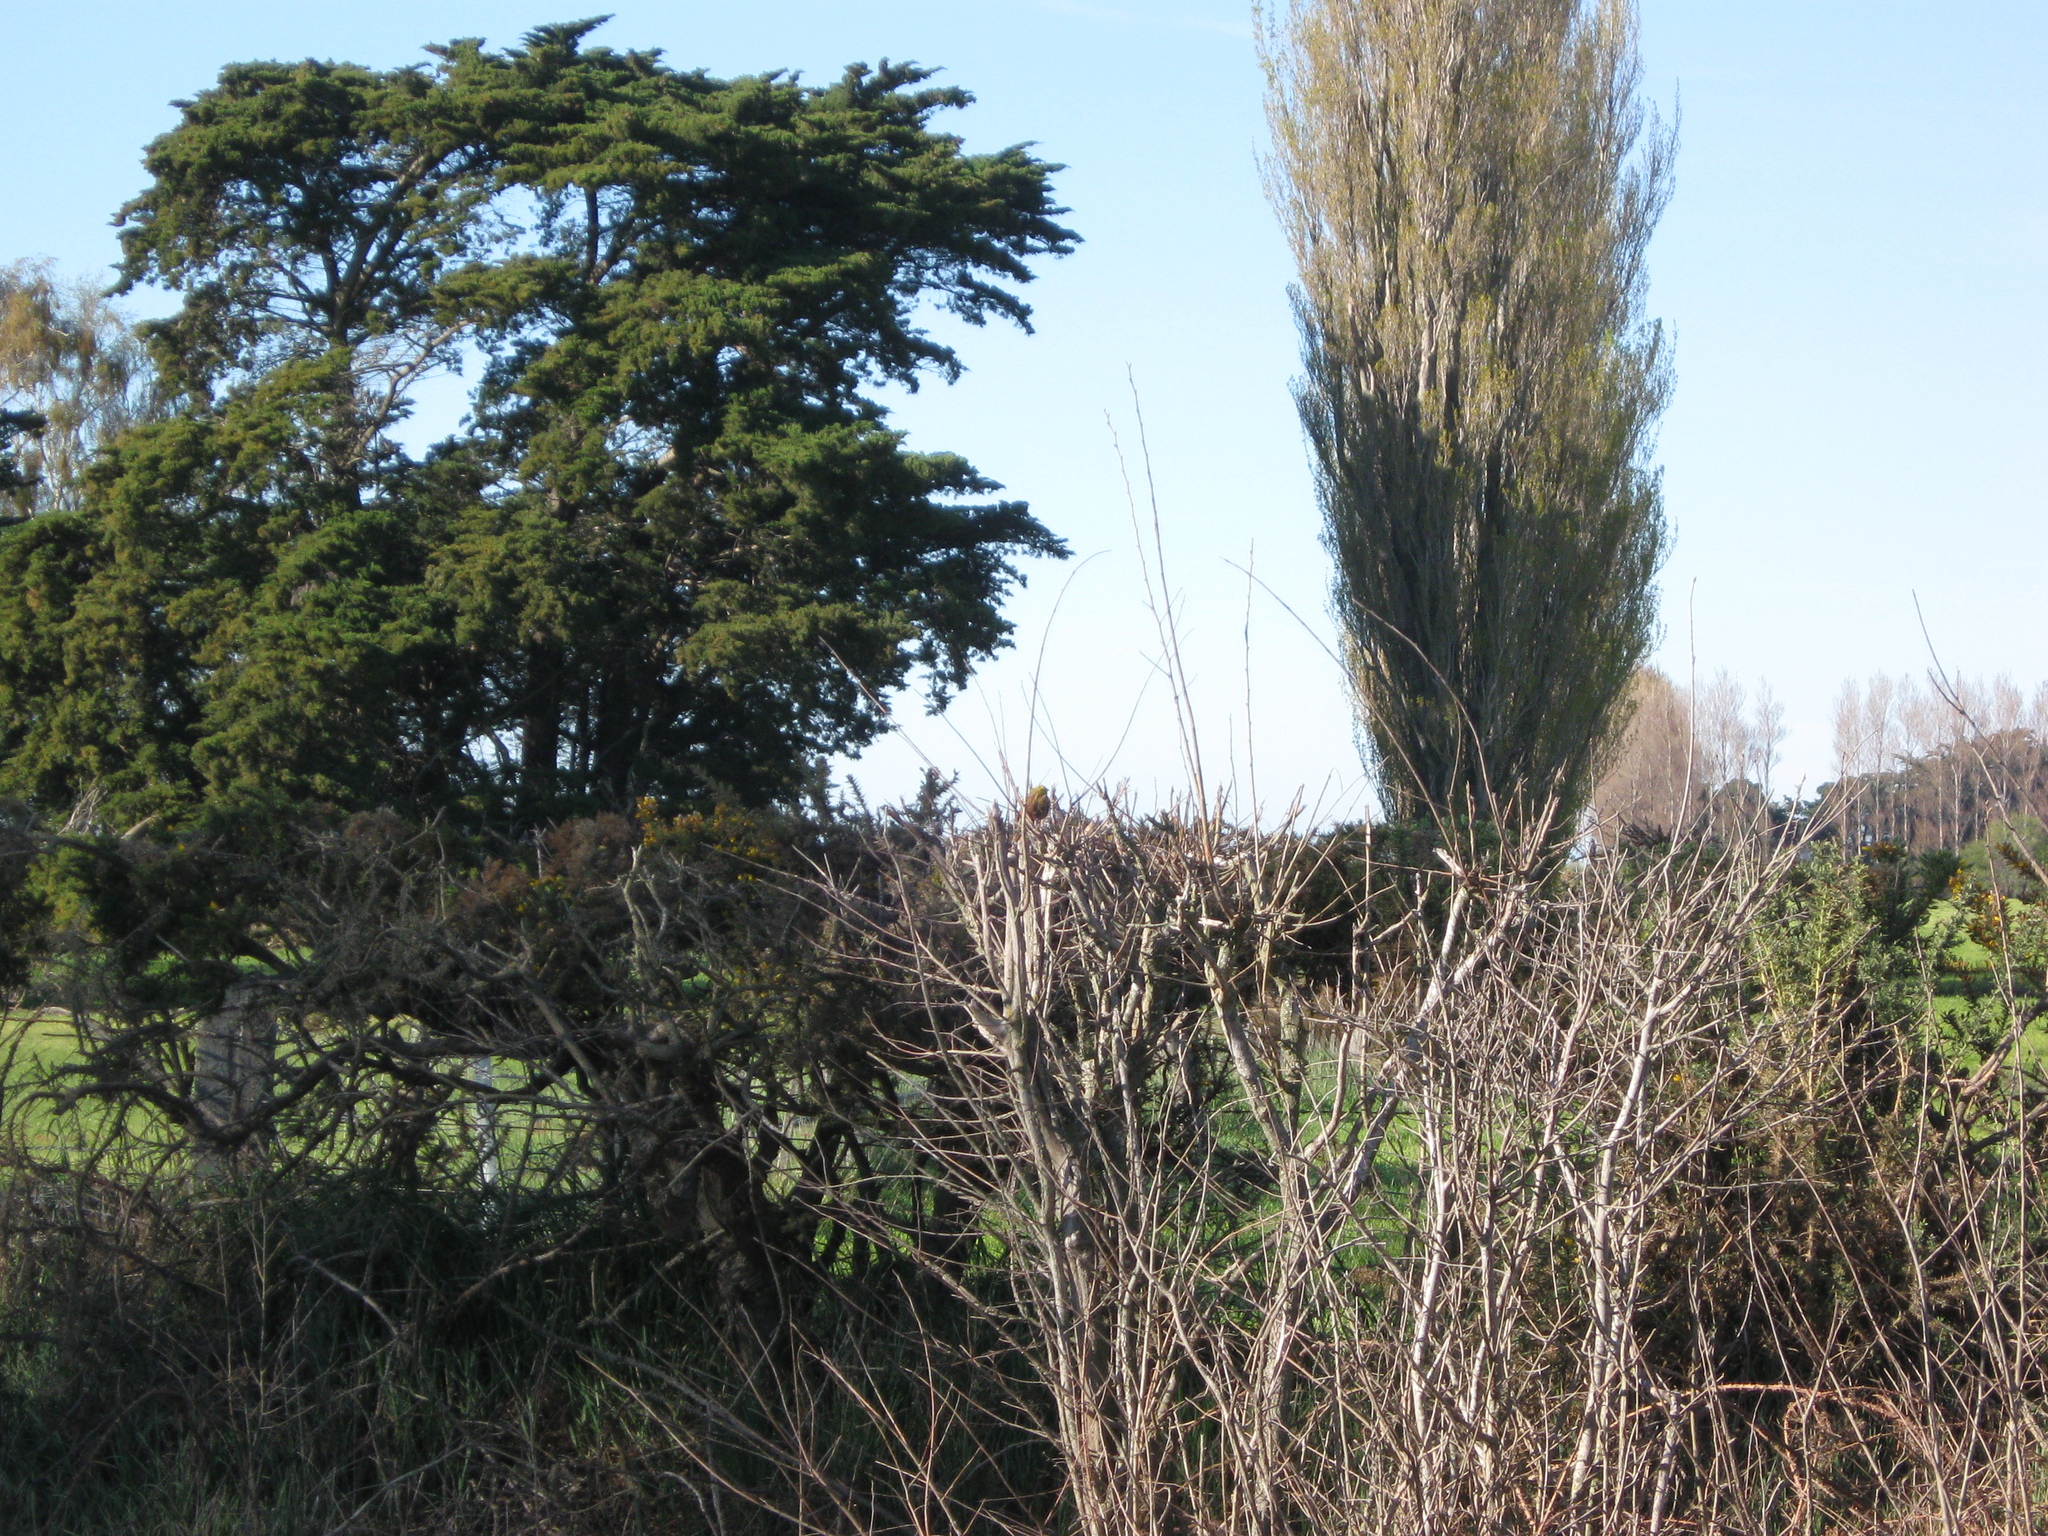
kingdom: Animalia
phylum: Chordata
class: Aves
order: Passeriformes
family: Emberizidae
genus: Emberiza
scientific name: Emberiza citrinella
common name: Yellowhammer
